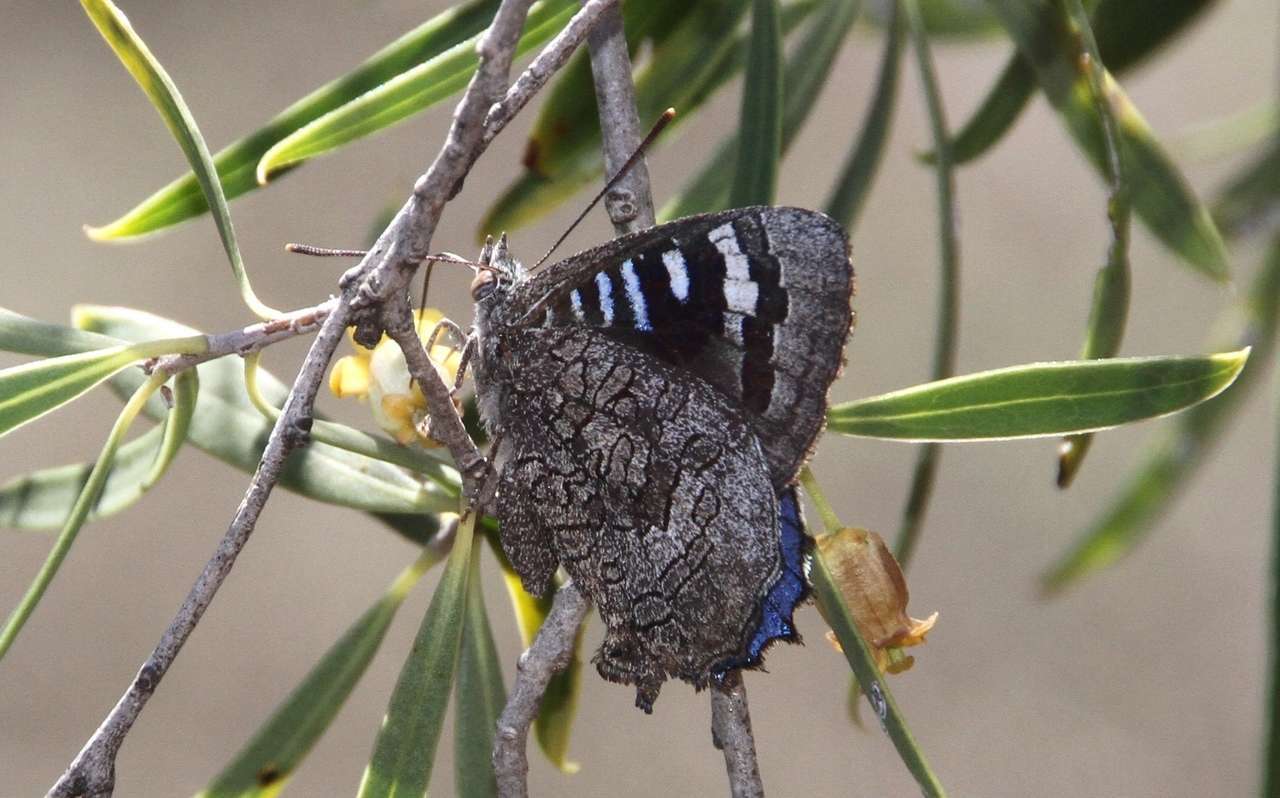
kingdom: Animalia
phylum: Arthropoda
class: Insecta
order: Lepidoptera
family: Lycaenidae
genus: Ogyris
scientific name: Ogyris amaryllis
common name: Satin azure
